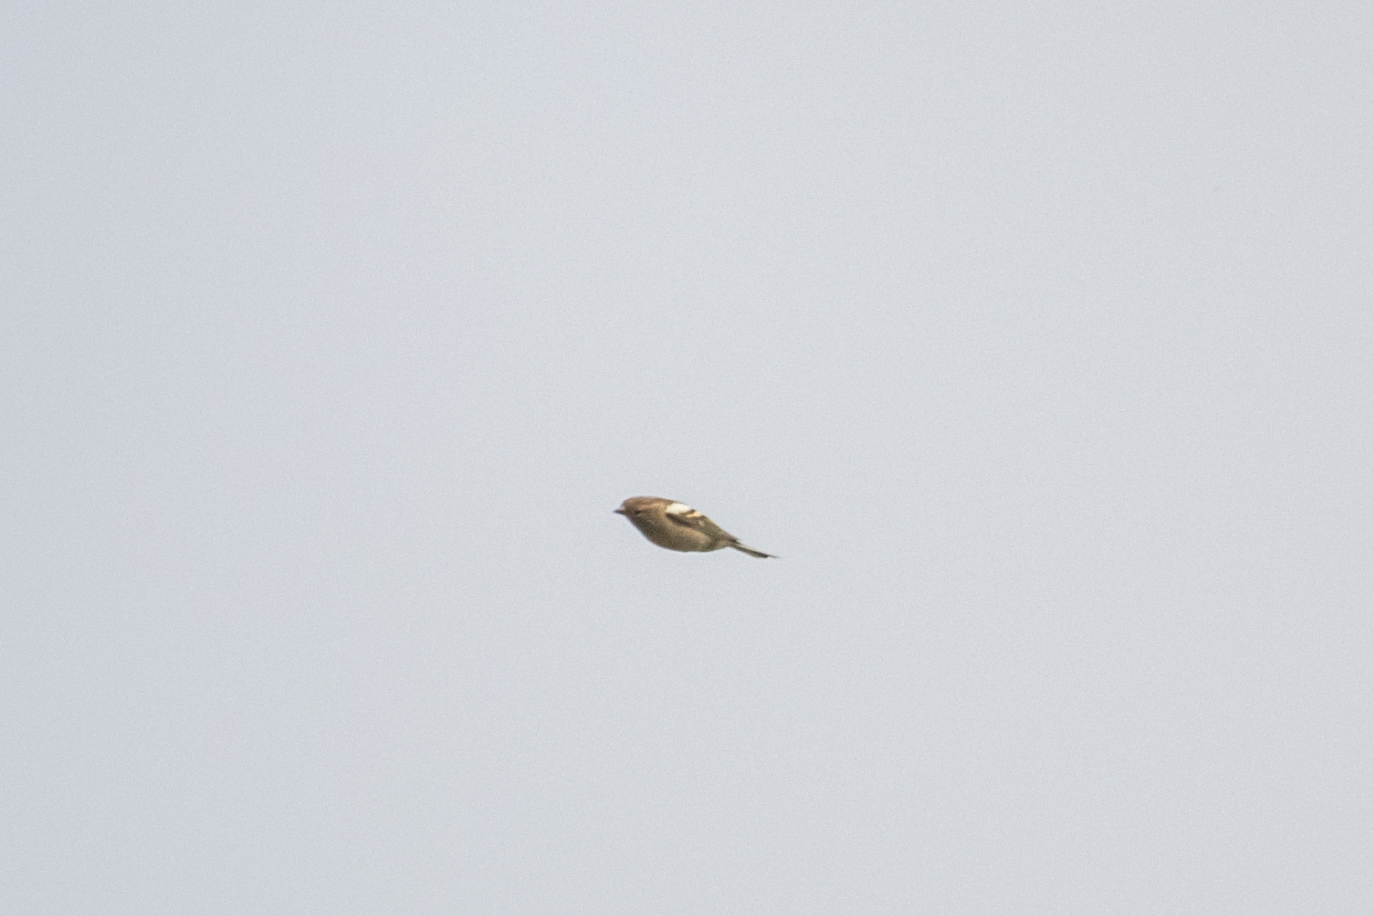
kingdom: Animalia
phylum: Chordata
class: Aves
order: Passeriformes
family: Fringillidae
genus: Fringilla
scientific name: Fringilla coelebs
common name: Common chaffinch
